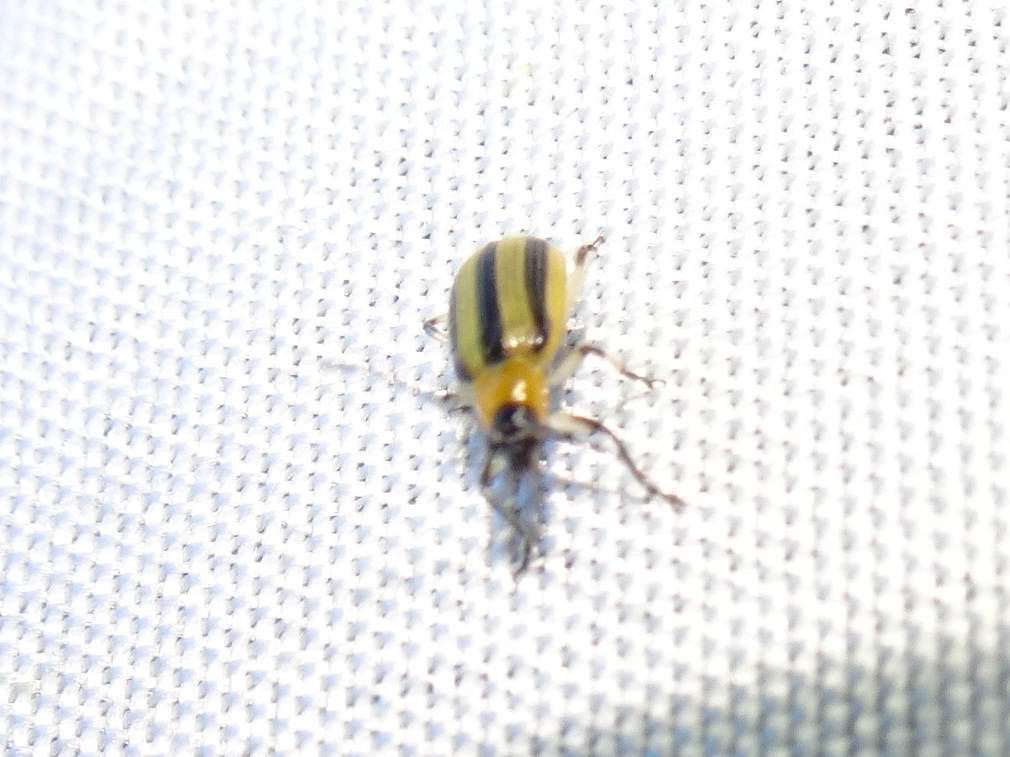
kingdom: Animalia
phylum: Arthropoda
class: Insecta
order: Coleoptera
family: Chrysomelidae
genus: Acalymma
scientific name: Acalymma vittatum
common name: Striped cucumber beetle
